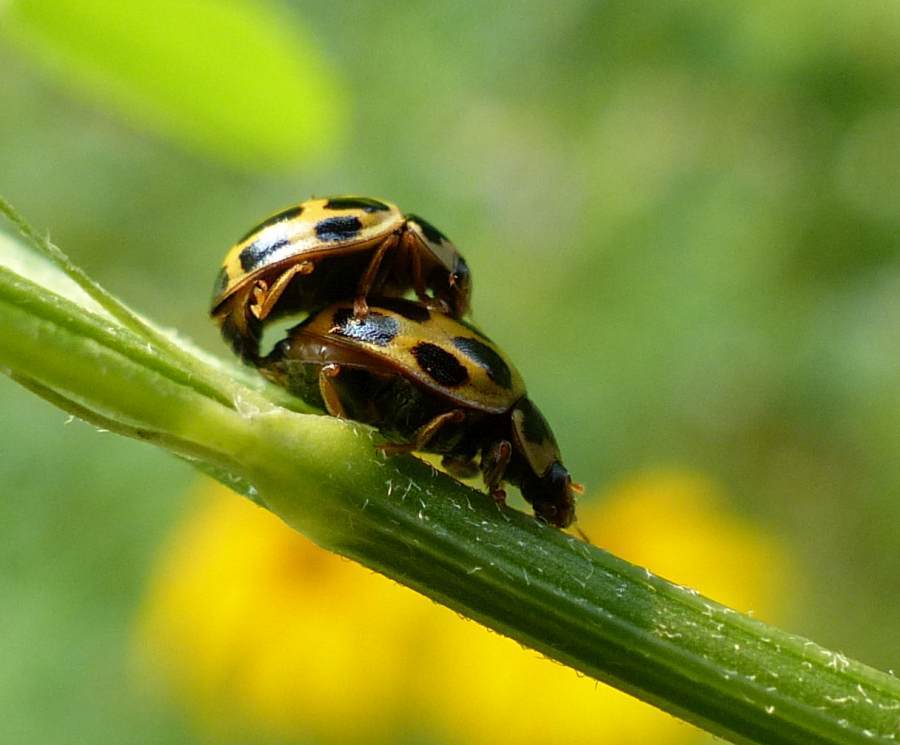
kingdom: Animalia
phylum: Arthropoda
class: Insecta
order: Coleoptera
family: Coccinellidae
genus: Propylaea
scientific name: Propylaea quatuordecimpunctata
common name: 14-spotted ladybird beetle
